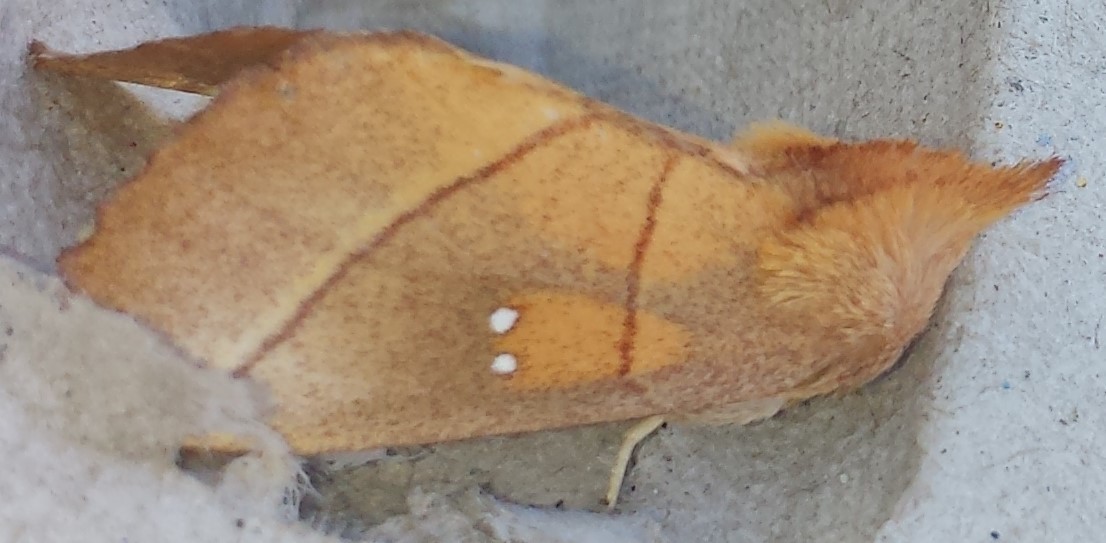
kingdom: Animalia
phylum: Arthropoda
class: Insecta
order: Lepidoptera
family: Notodontidae
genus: Nadata
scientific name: Nadata gibbosa
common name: White-dotted prominent
